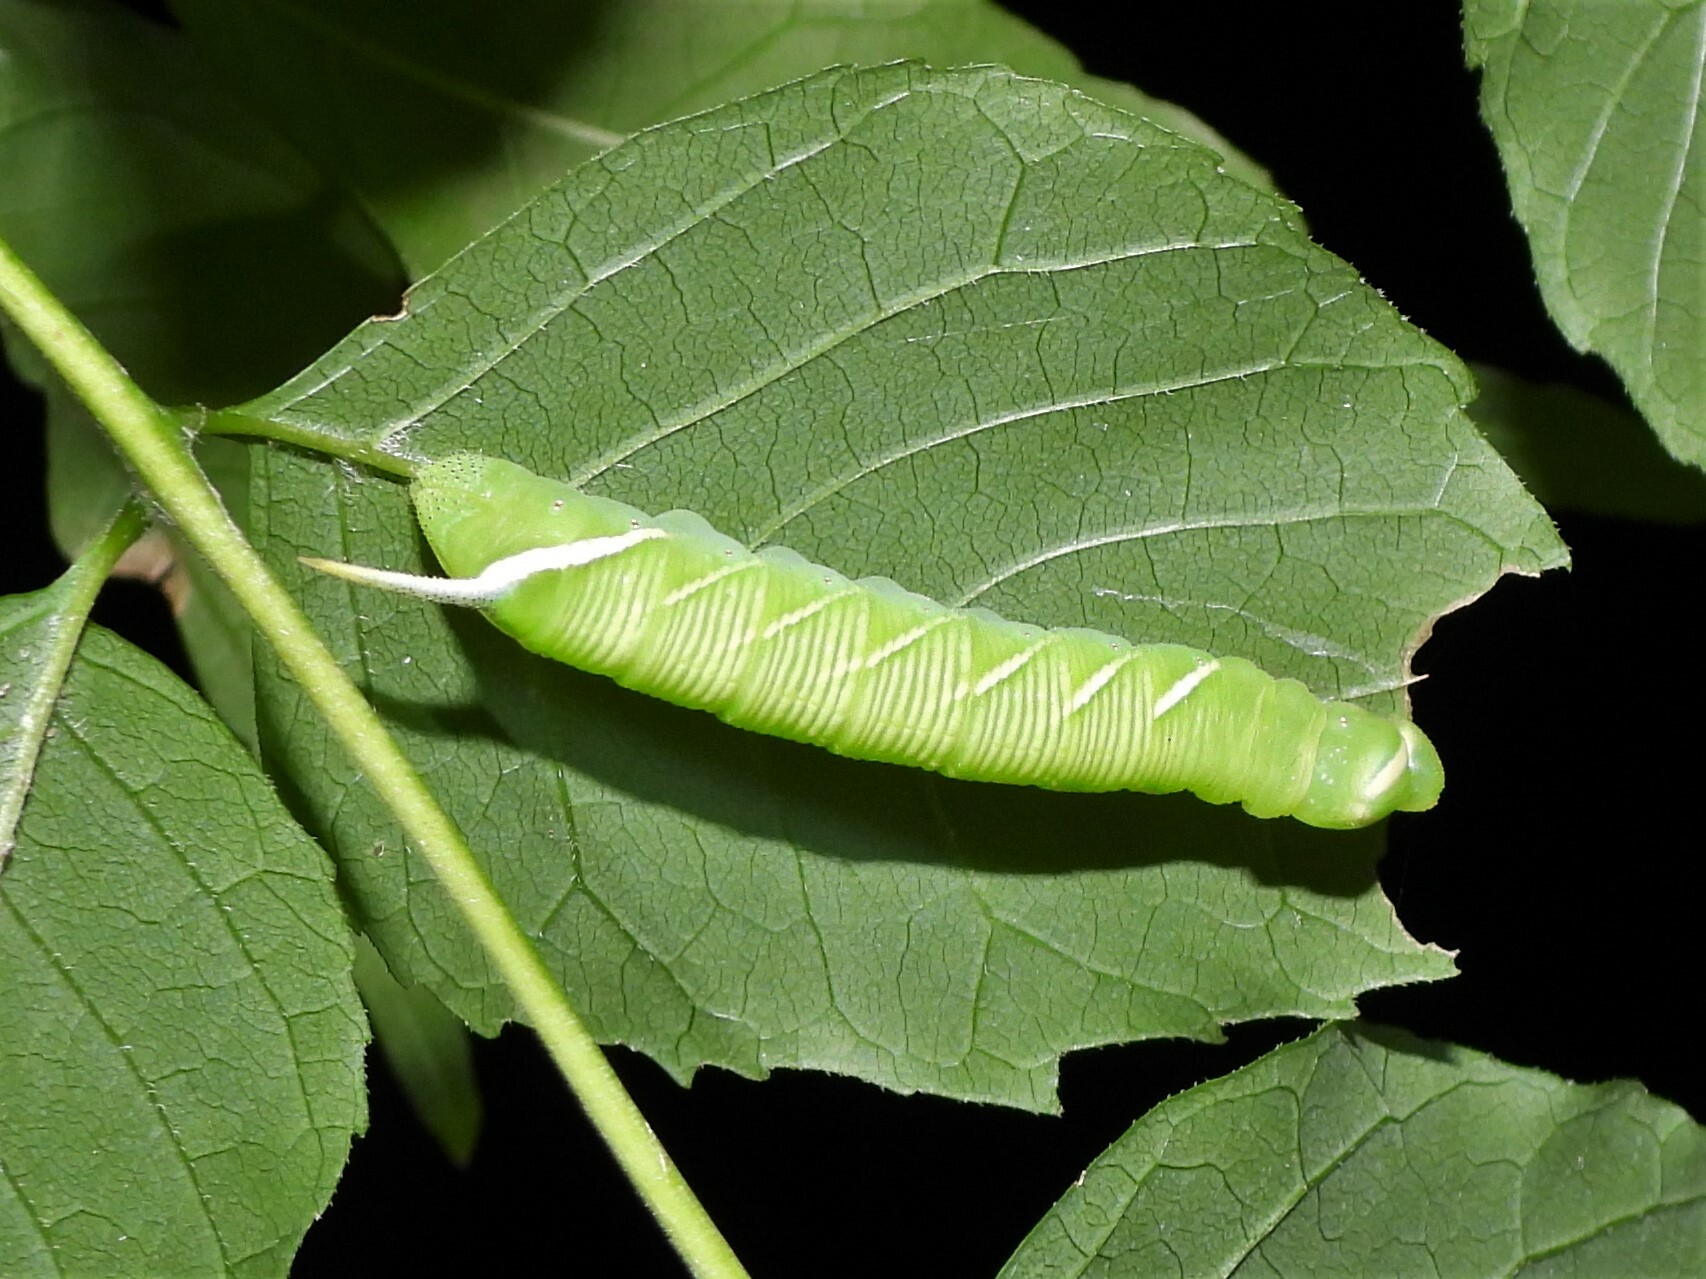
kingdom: Animalia
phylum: Arthropoda
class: Insecta
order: Lepidoptera
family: Sphingidae
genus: Ceratomia
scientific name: Ceratomia undulosa
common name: Waved sphinx
